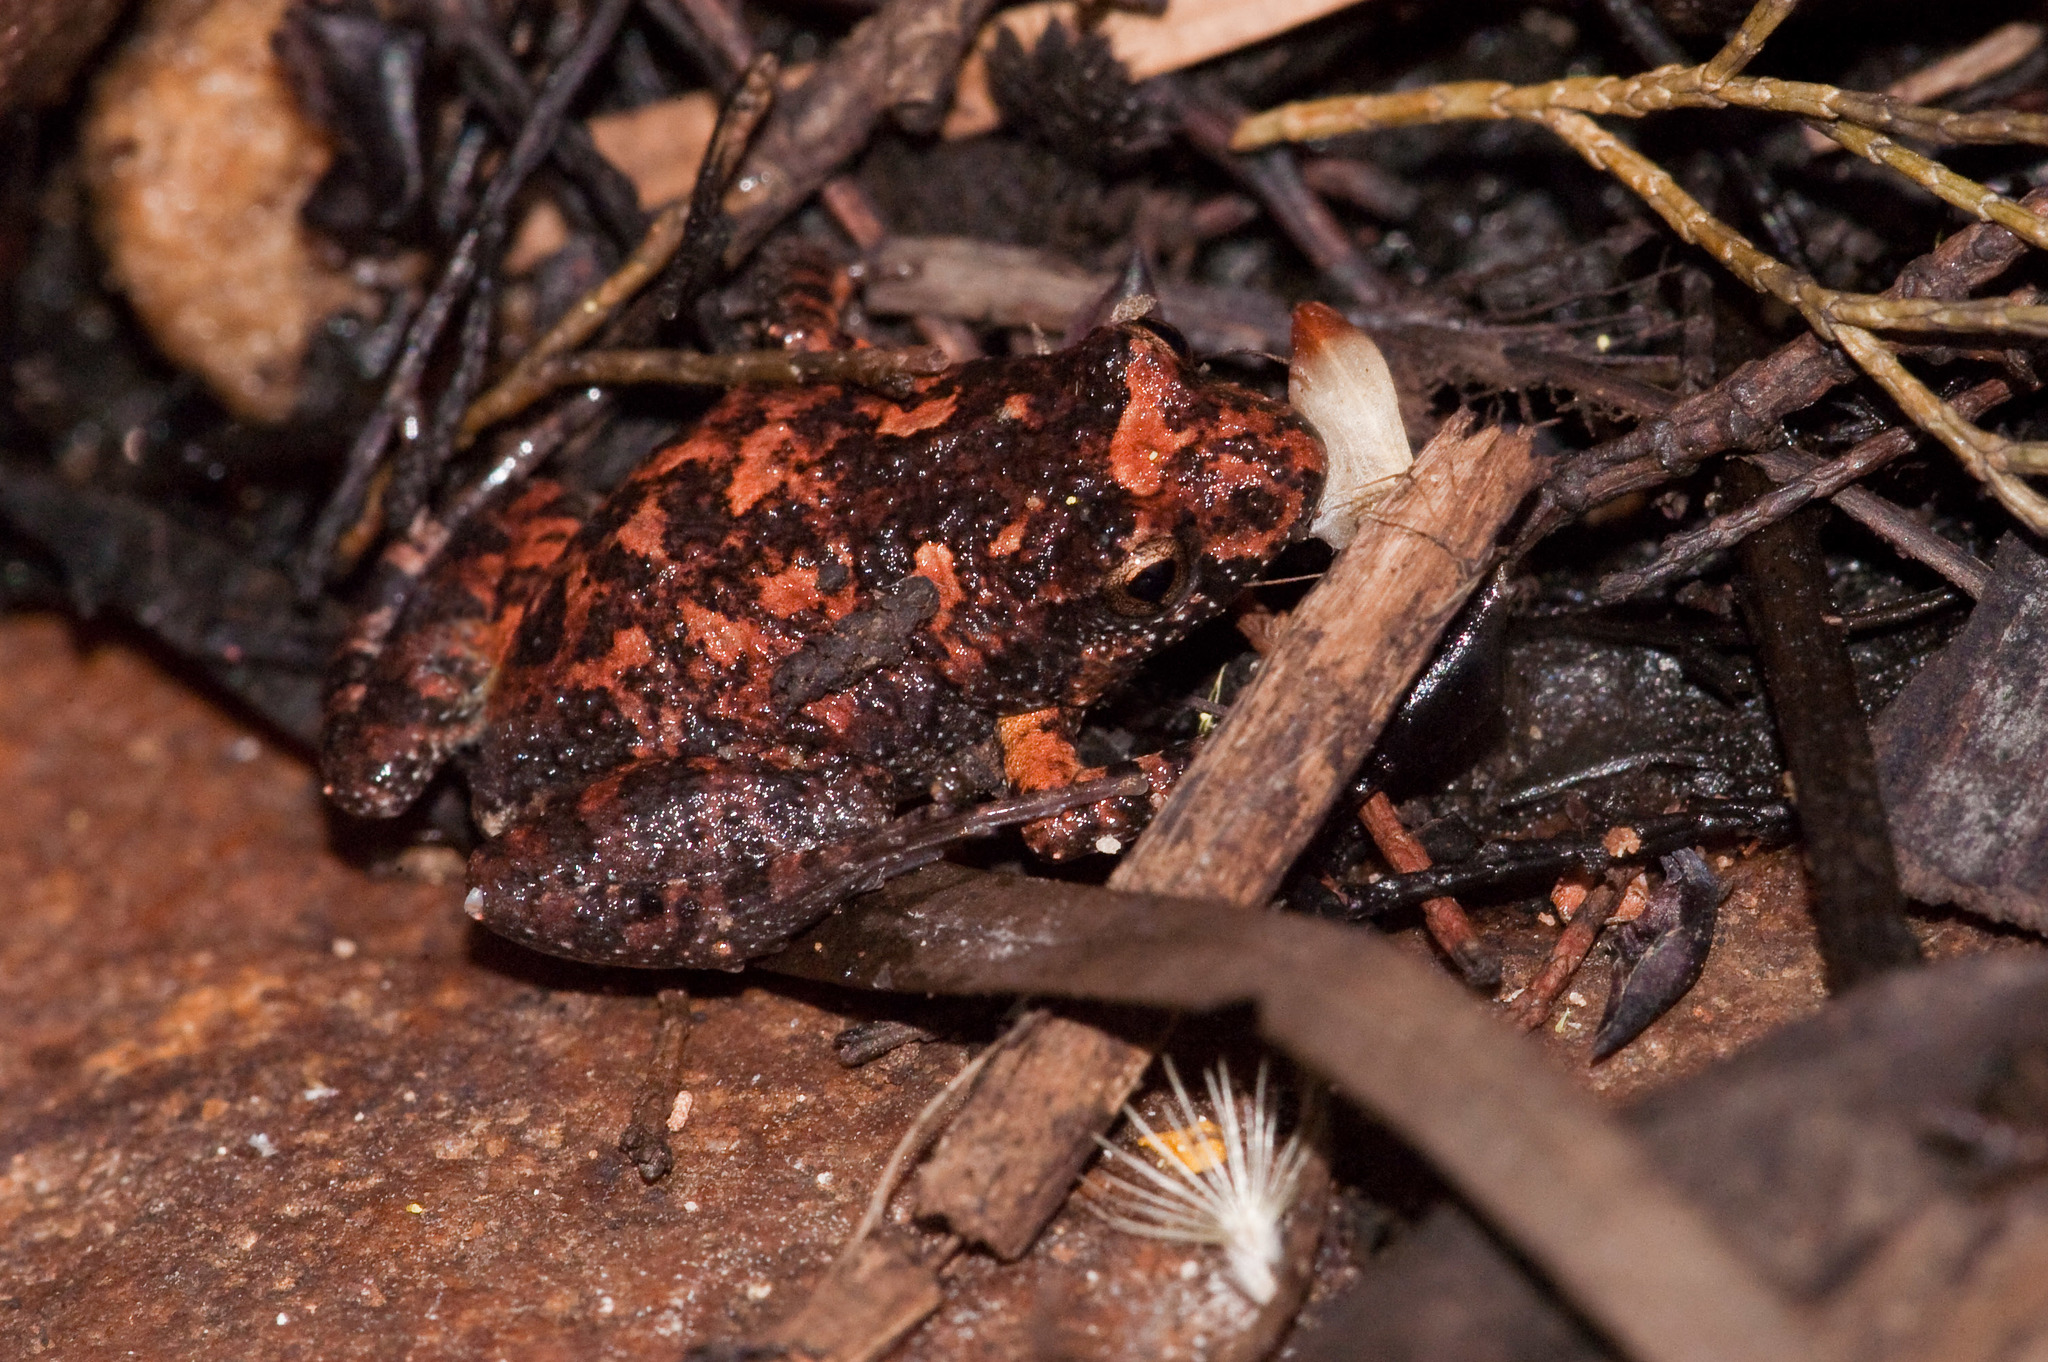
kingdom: Animalia
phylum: Chordata
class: Amphibia
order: Anura
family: Myobatrachidae
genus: Crinia
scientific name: Crinia riparia
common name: Streambank froglet
